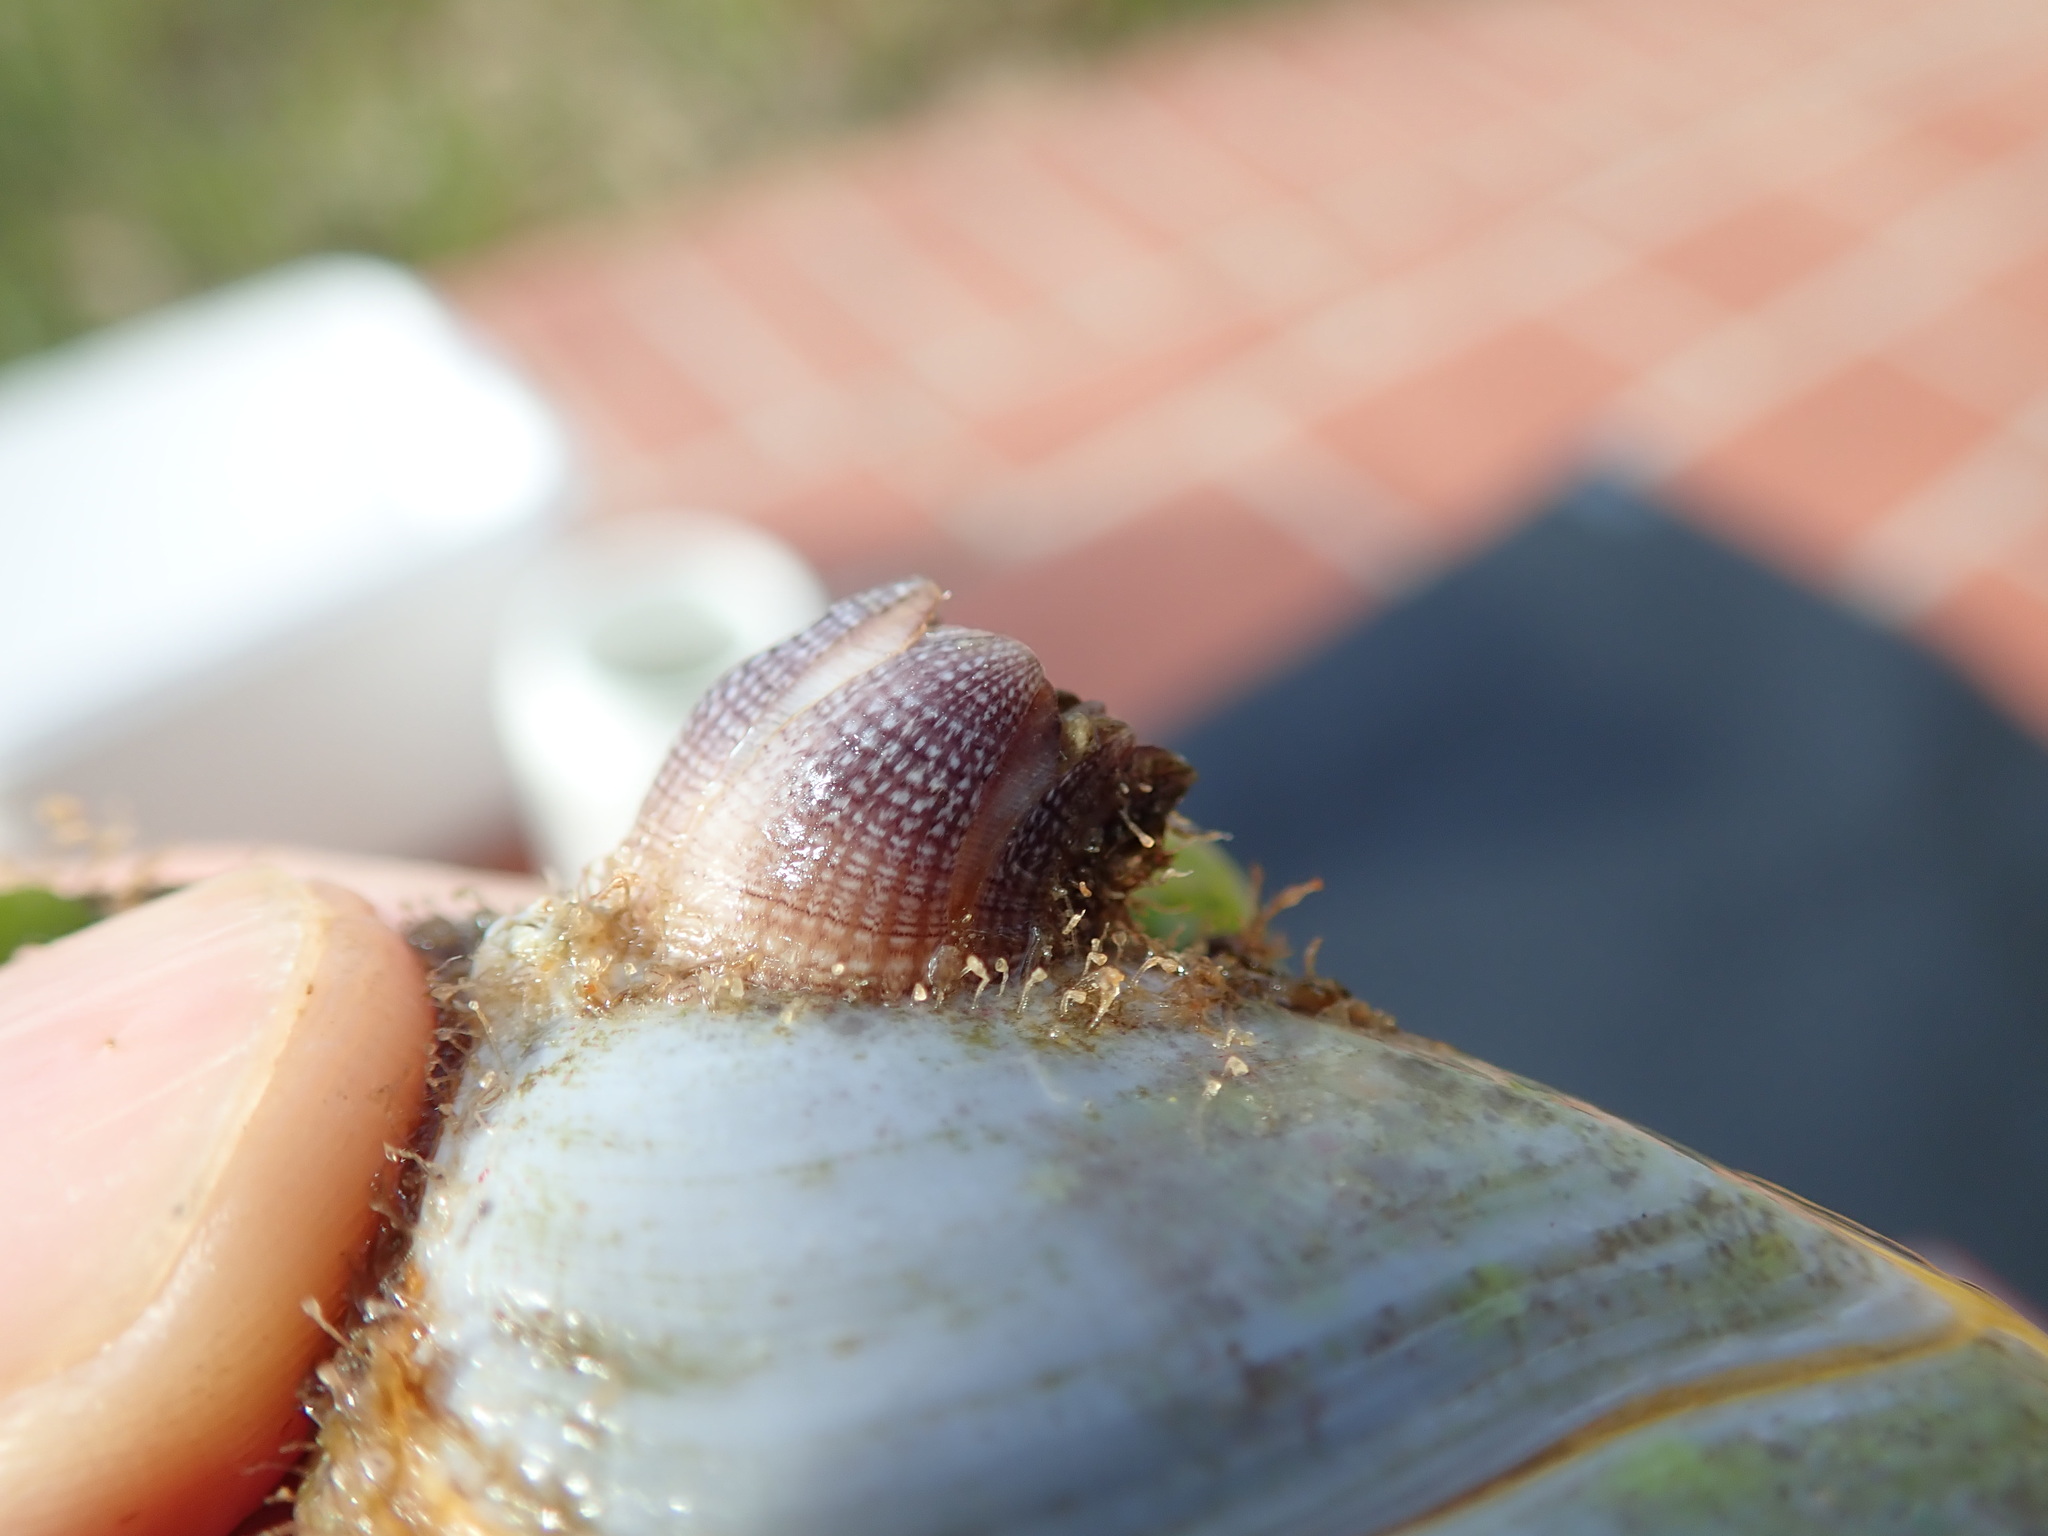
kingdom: Animalia
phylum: Arthropoda
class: Maxillopoda
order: Sessilia
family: Balanidae
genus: Amphibalanus
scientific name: Amphibalanus variegatus
